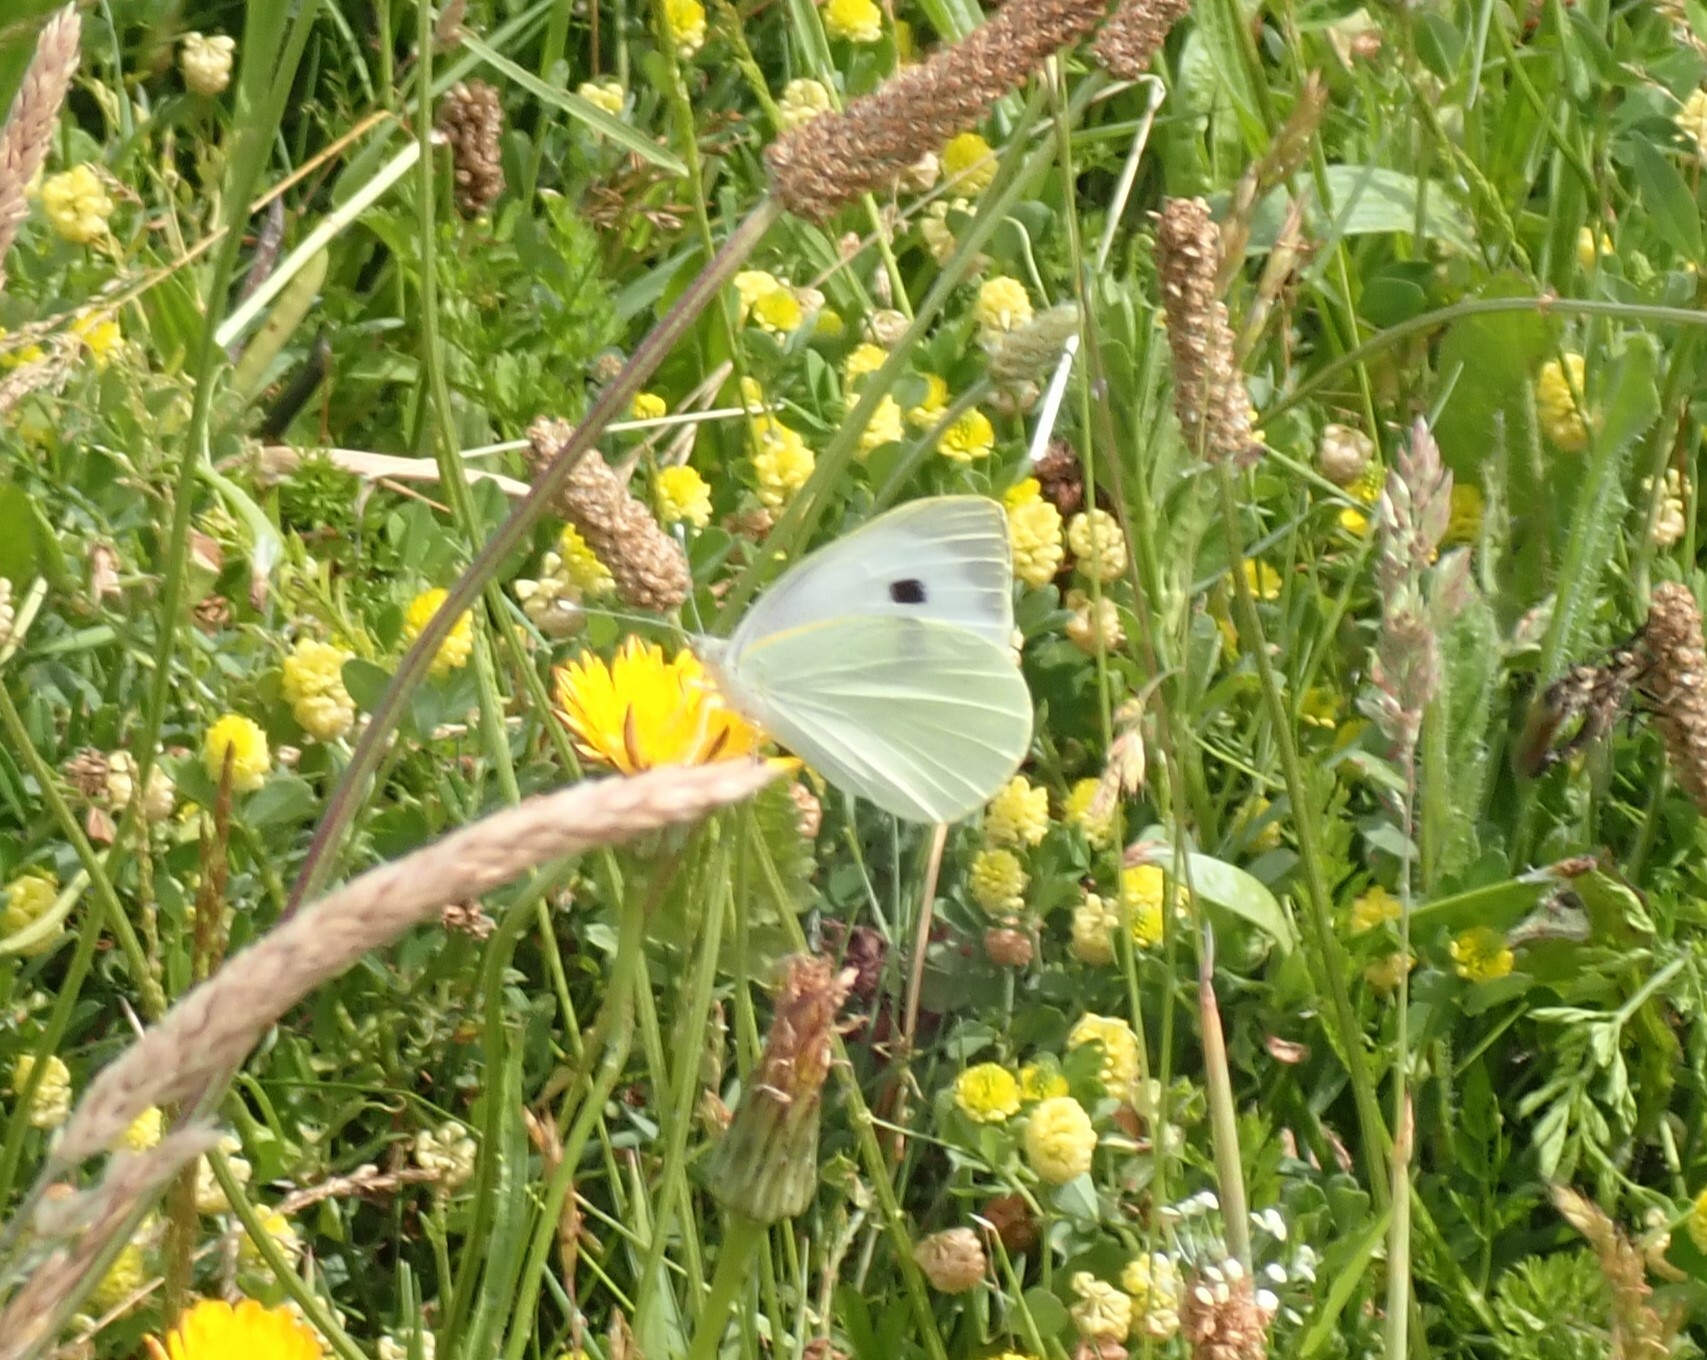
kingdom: Animalia
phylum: Arthropoda
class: Insecta
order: Lepidoptera
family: Pieridae
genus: Pieris
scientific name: Pieris brassicae
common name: Large white
